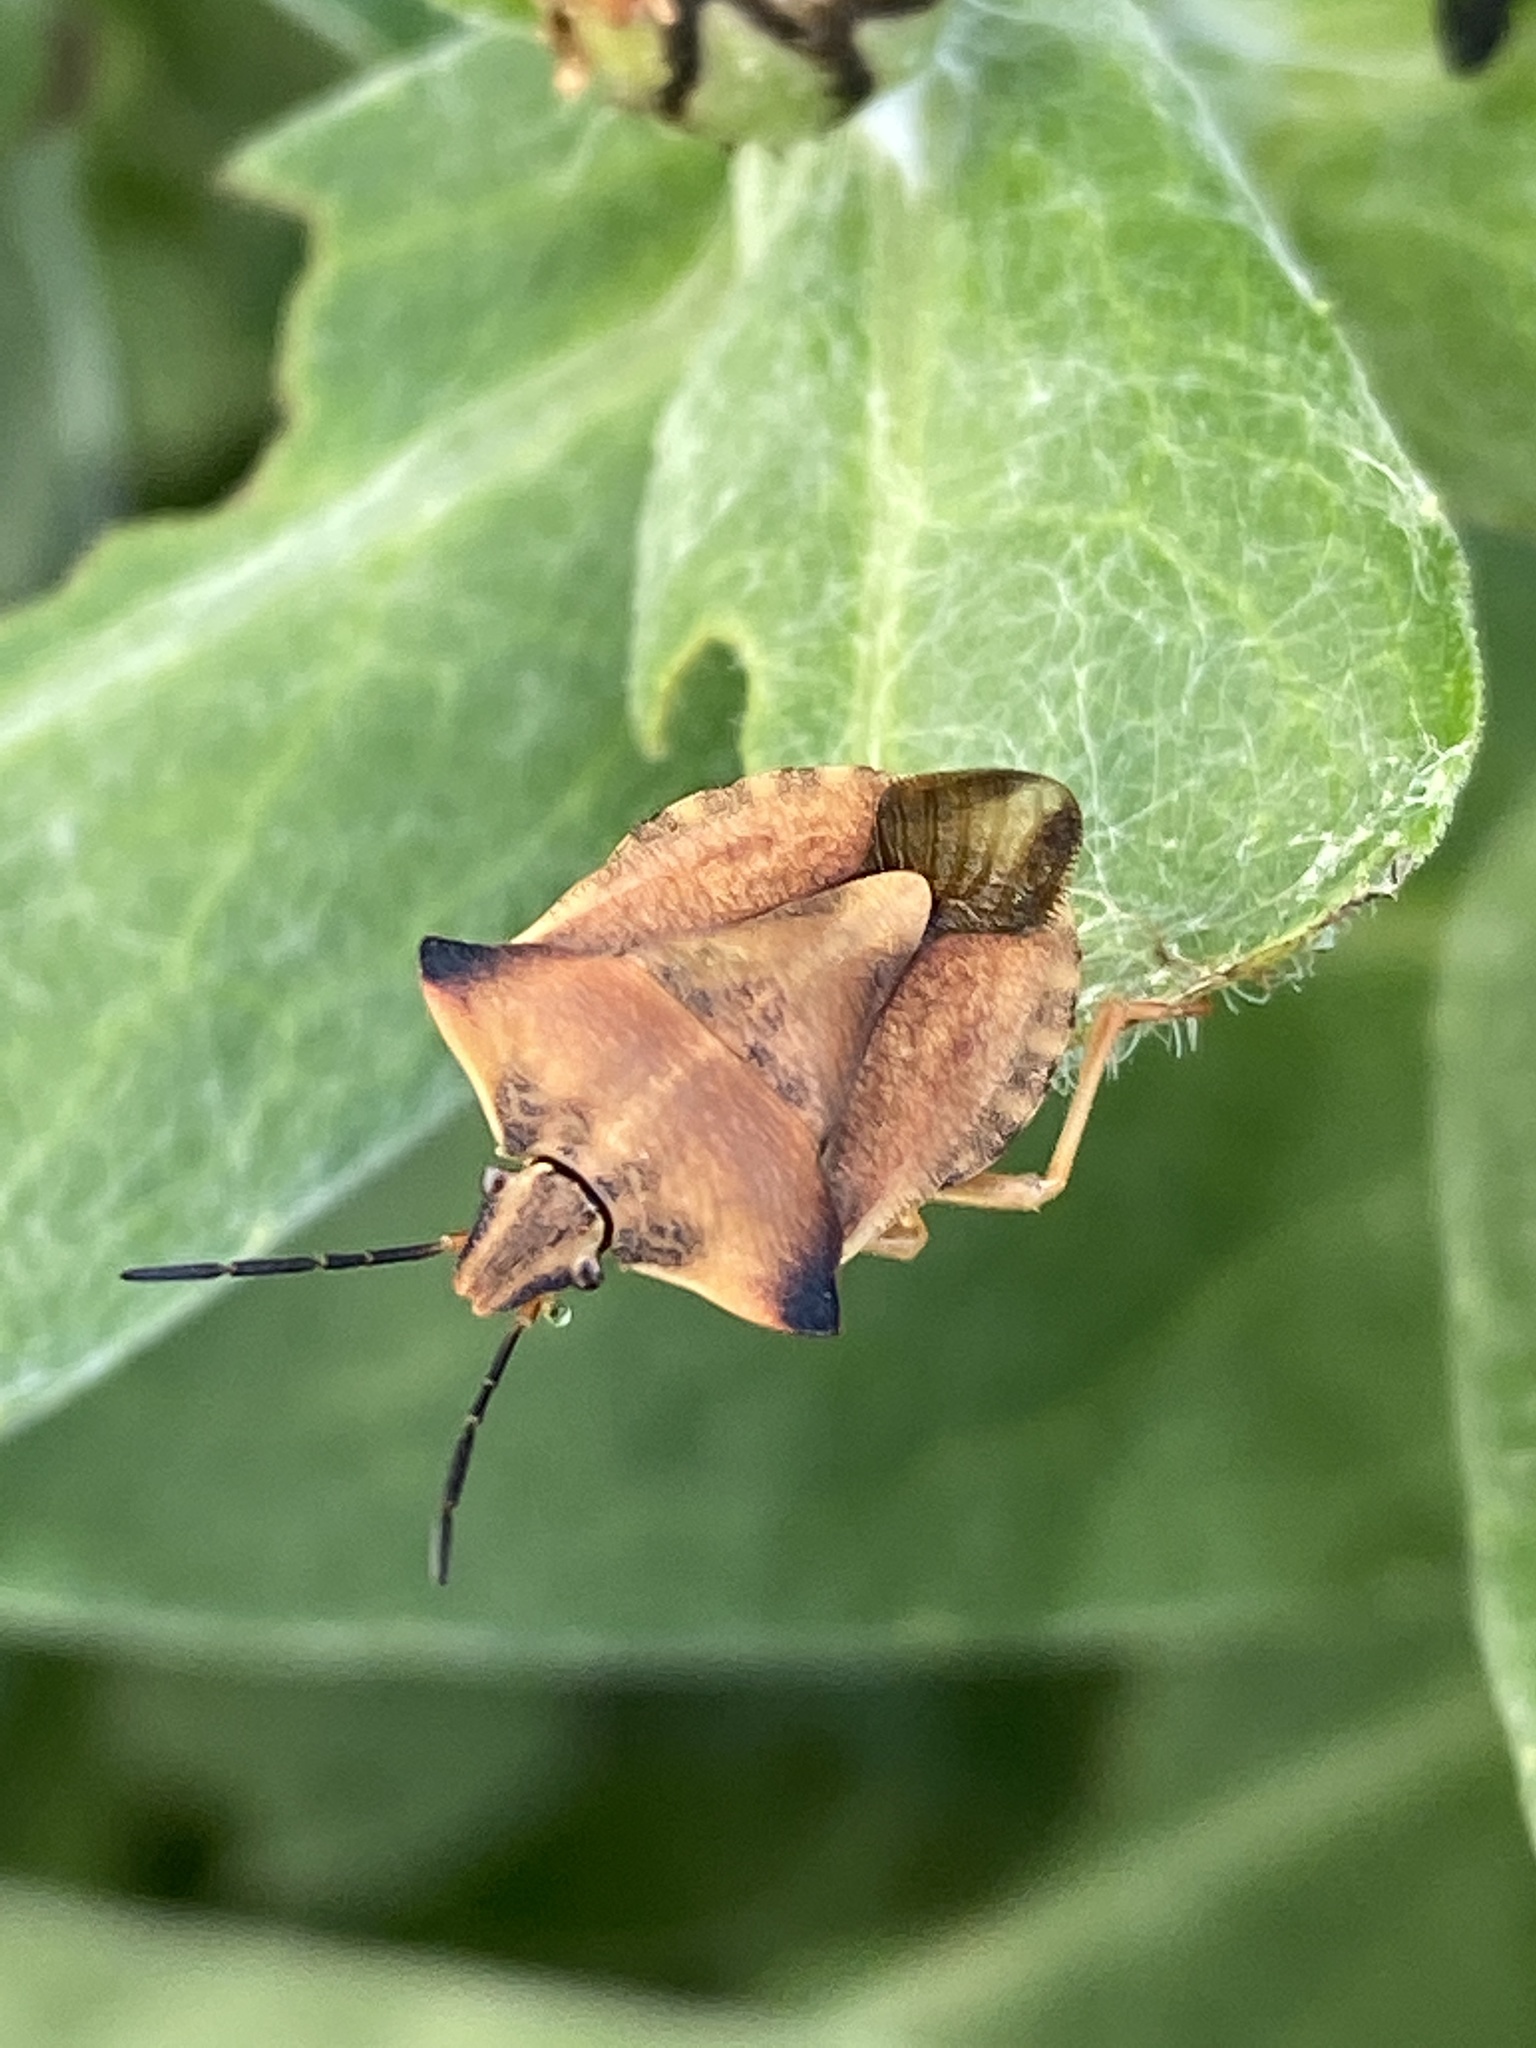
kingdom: Animalia
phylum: Arthropoda
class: Insecta
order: Hemiptera
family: Pentatomidae
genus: Carpocoris
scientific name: Carpocoris fuscispinus
